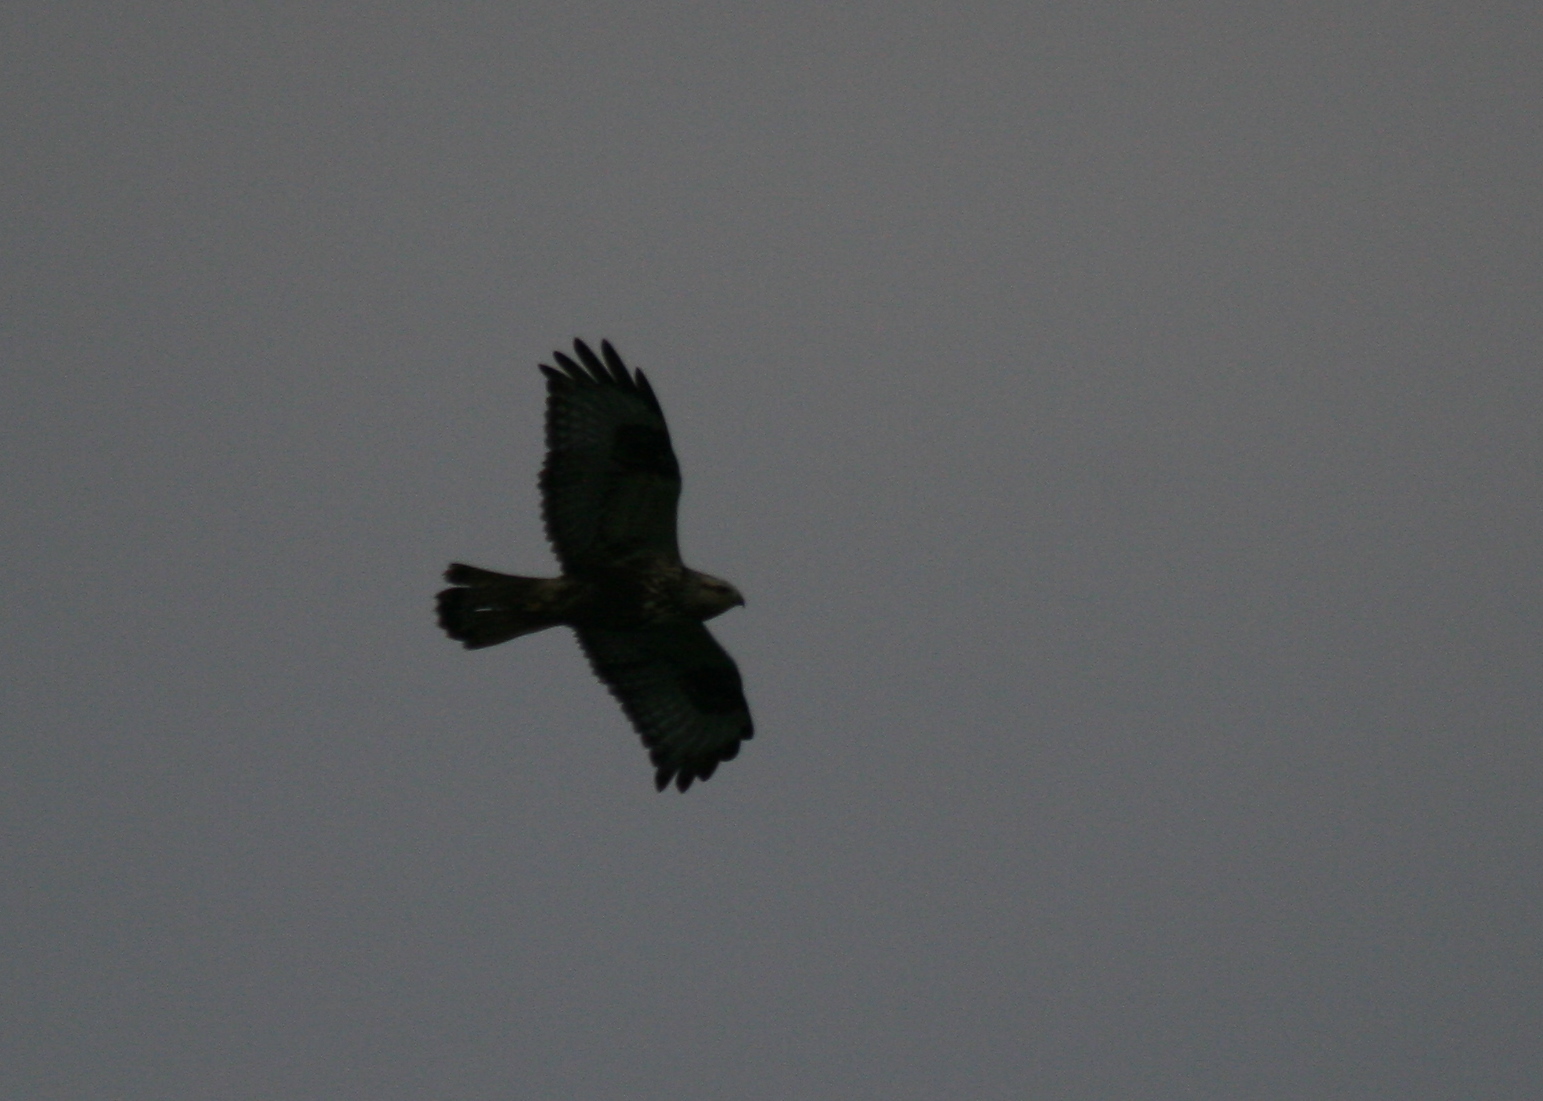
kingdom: Animalia
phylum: Chordata
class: Aves
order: Accipitriformes
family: Accipitridae
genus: Buteo
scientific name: Buteo lagopus
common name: Rough-legged buzzard
